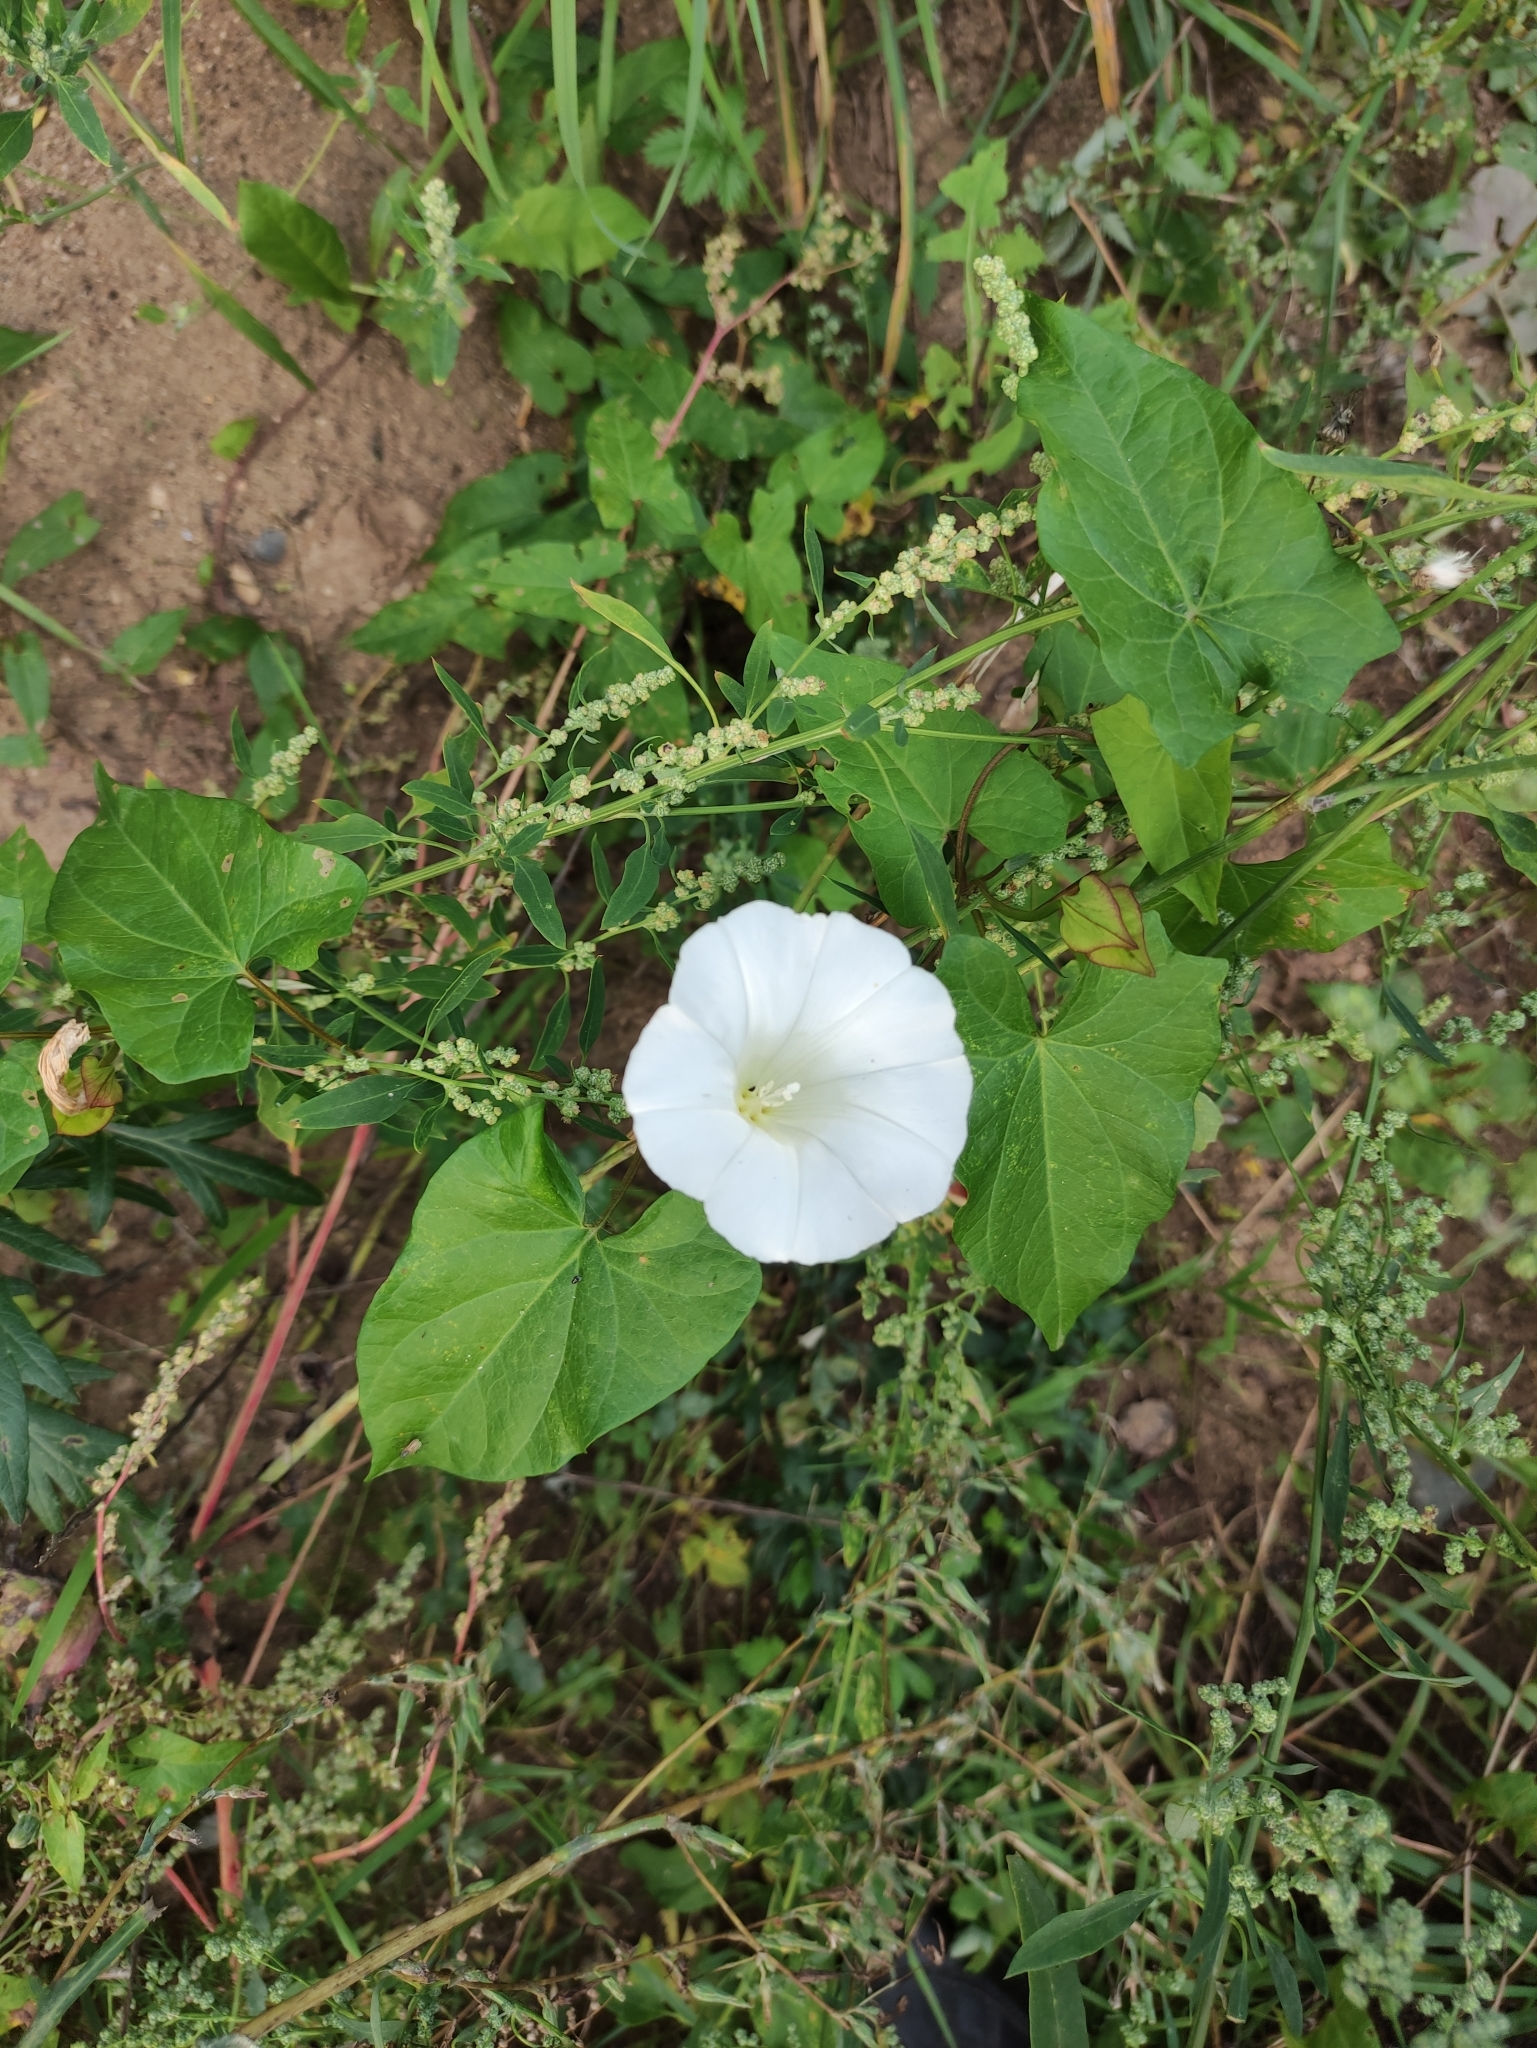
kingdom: Plantae
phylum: Tracheophyta
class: Magnoliopsida
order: Solanales
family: Convolvulaceae
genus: Calystegia
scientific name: Calystegia sepium
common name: Hedge bindweed
